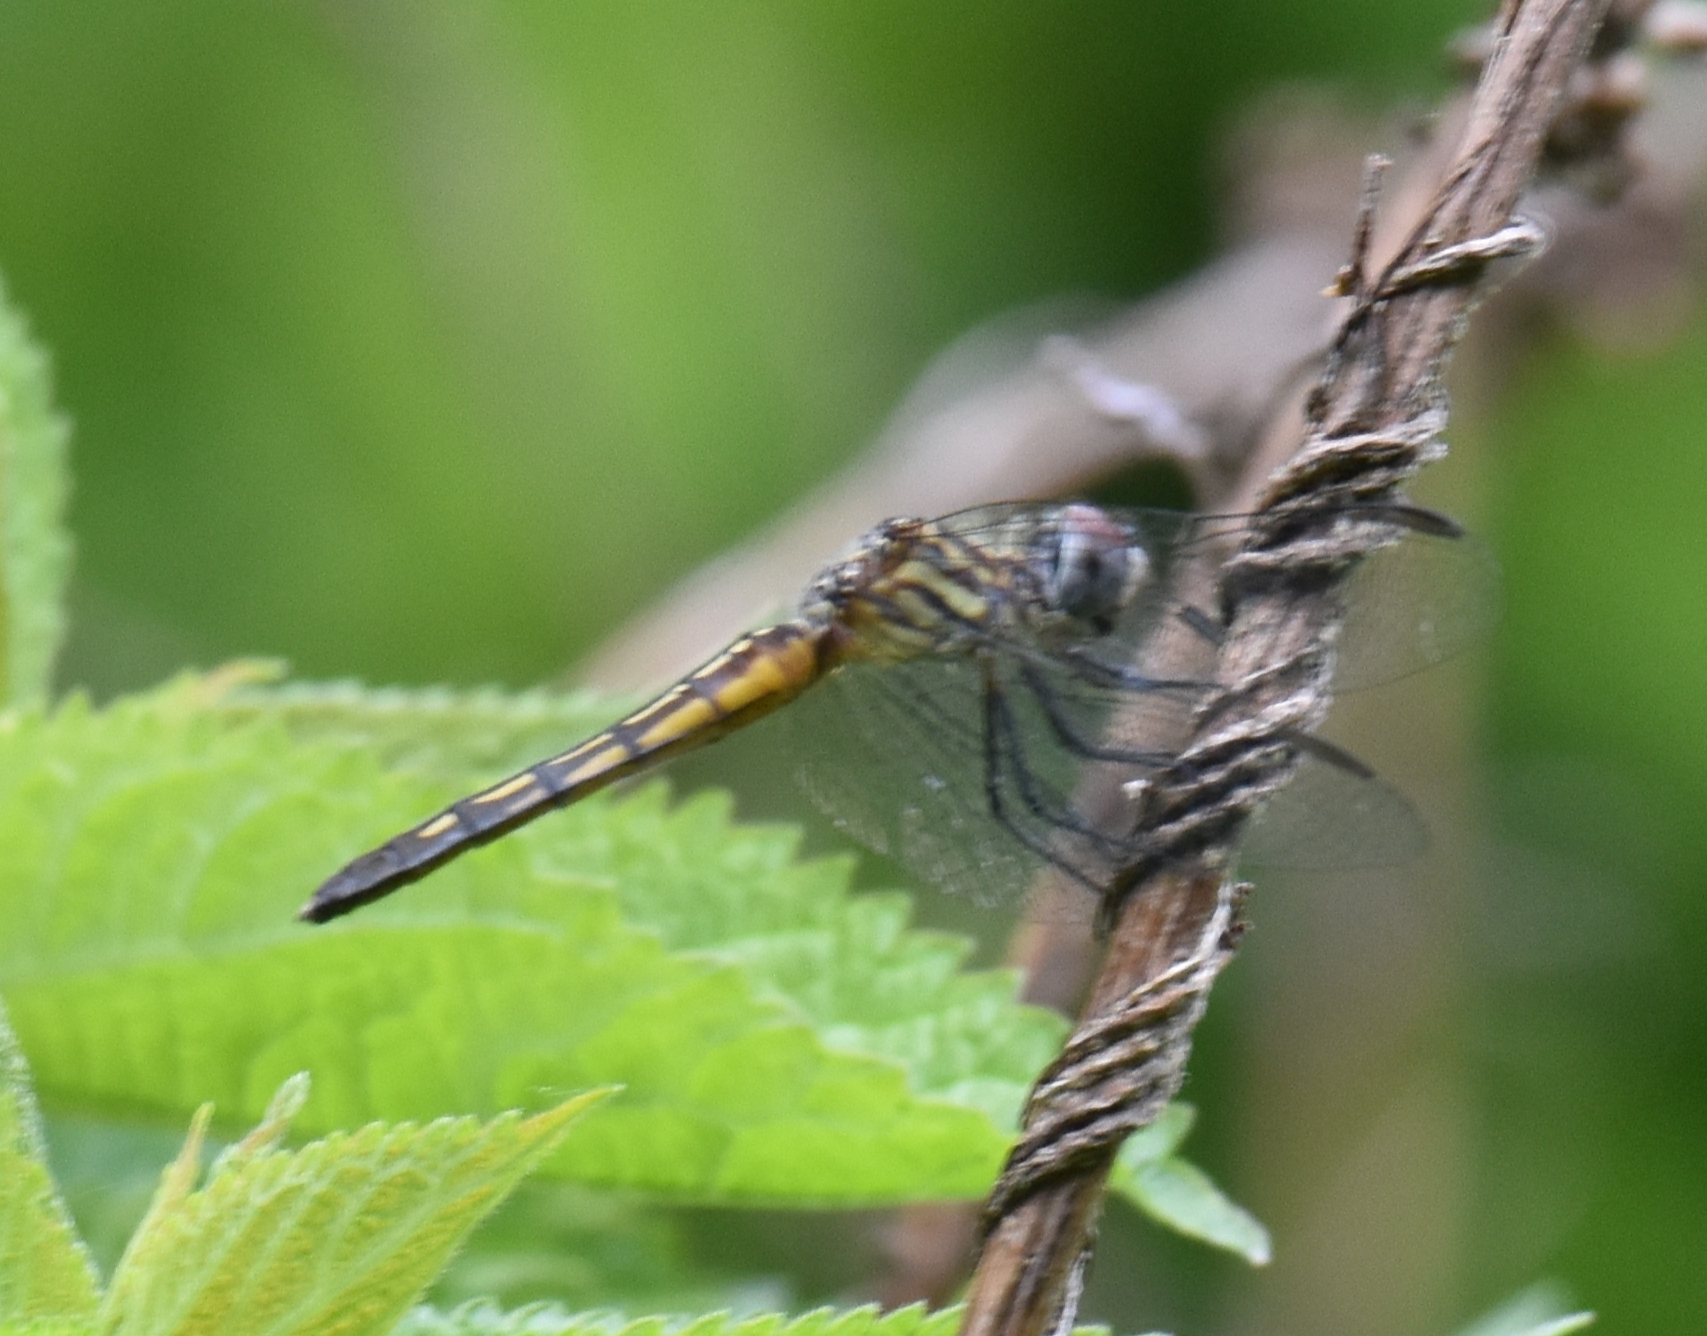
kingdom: Animalia
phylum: Arthropoda
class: Insecta
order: Odonata
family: Libellulidae
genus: Pachydiplax
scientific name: Pachydiplax longipennis
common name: Blue dasher
